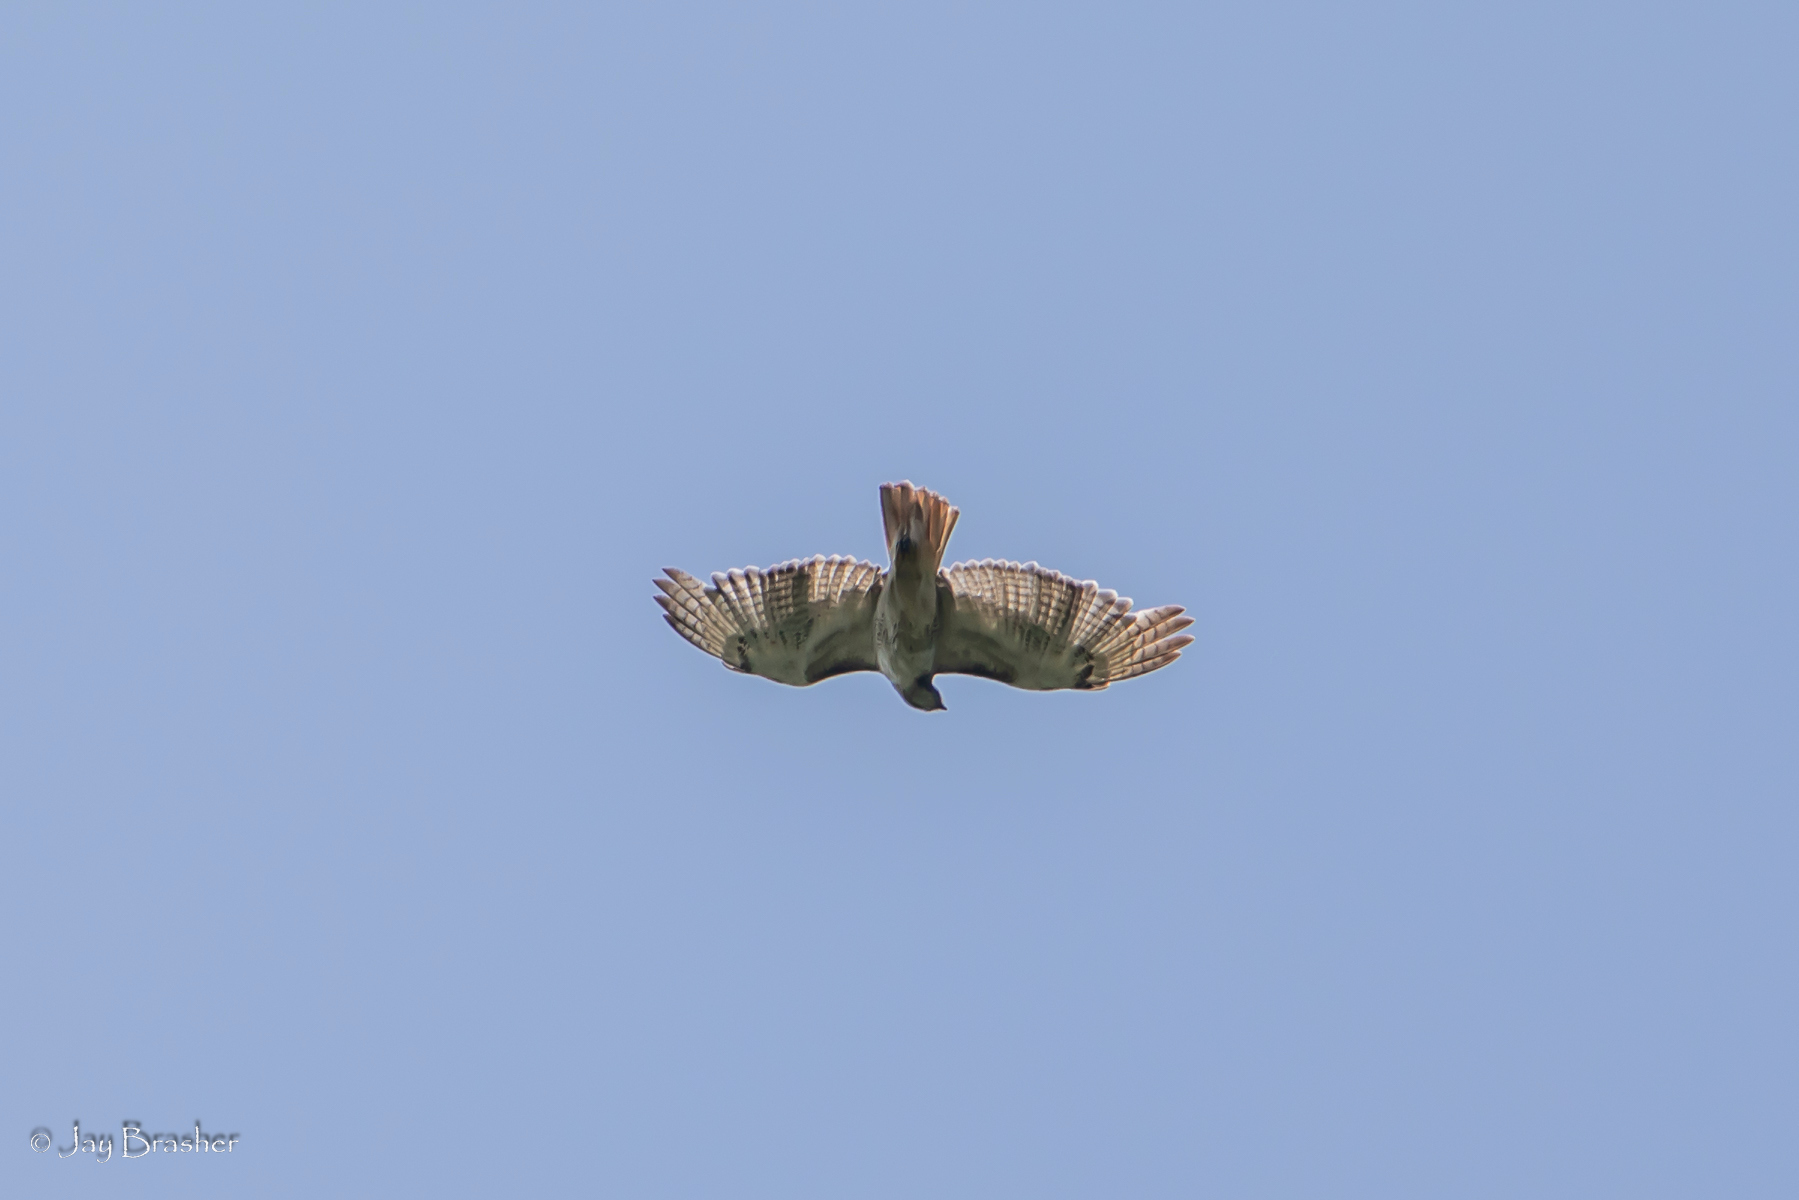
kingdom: Animalia
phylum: Chordata
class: Aves
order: Accipitriformes
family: Accipitridae
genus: Buteo
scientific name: Buteo jamaicensis
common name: Red-tailed hawk
